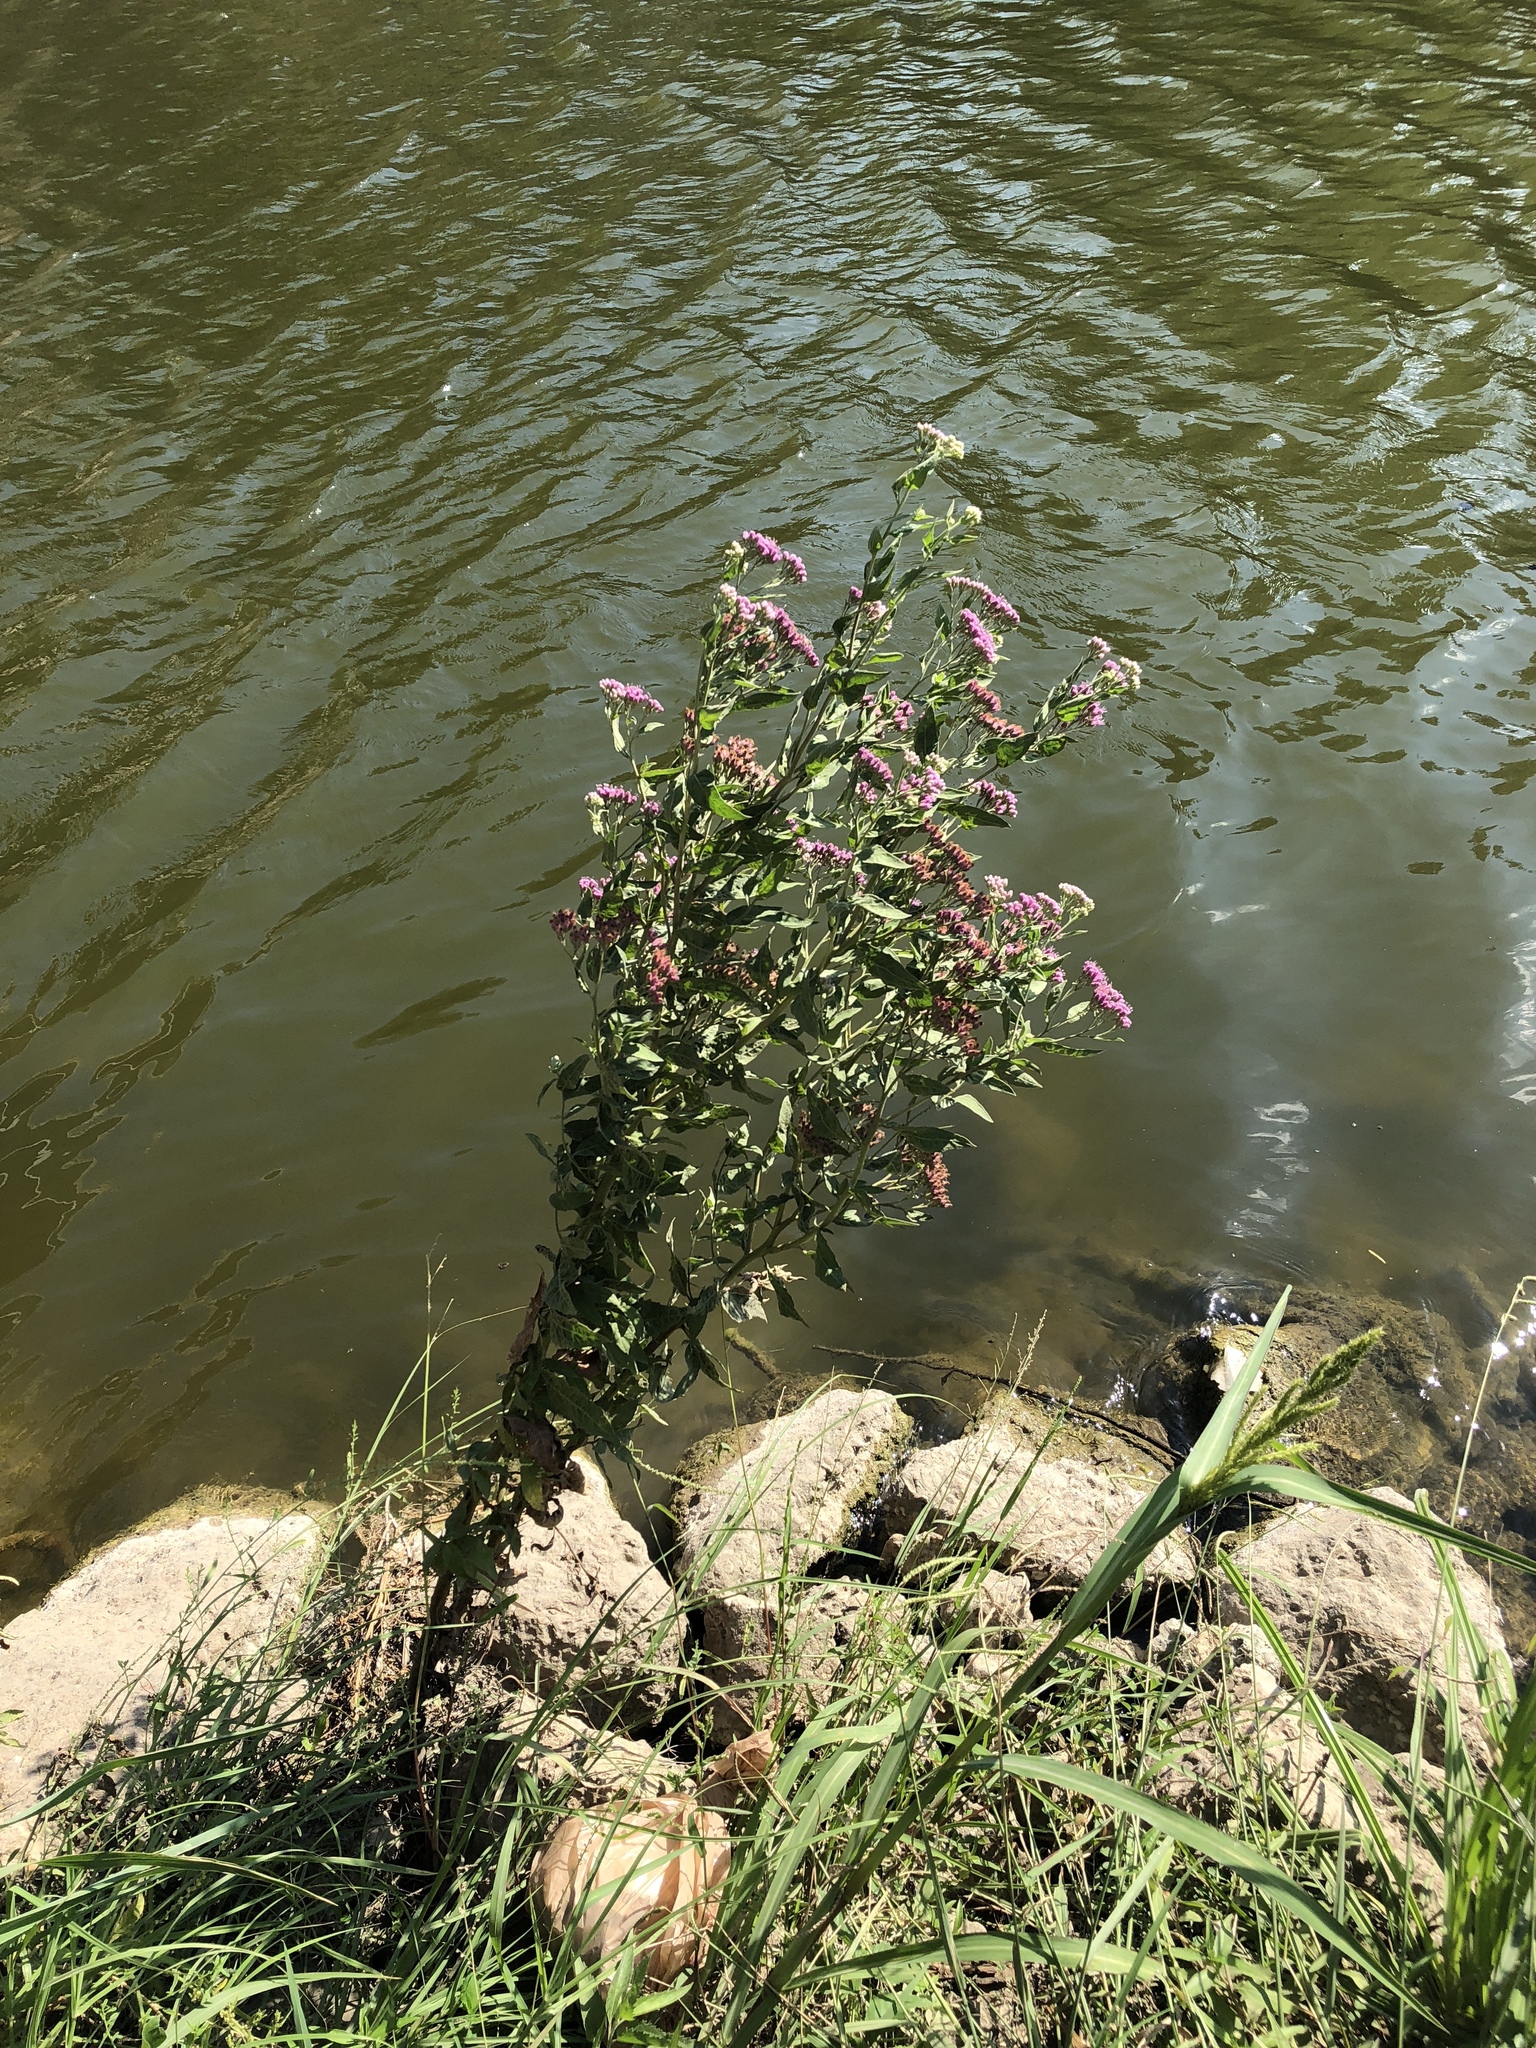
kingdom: Plantae
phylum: Tracheophyta
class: Magnoliopsida
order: Asterales
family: Asteraceae
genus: Pluchea
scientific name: Pluchea odorata
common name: Saltmarsh fleabane
